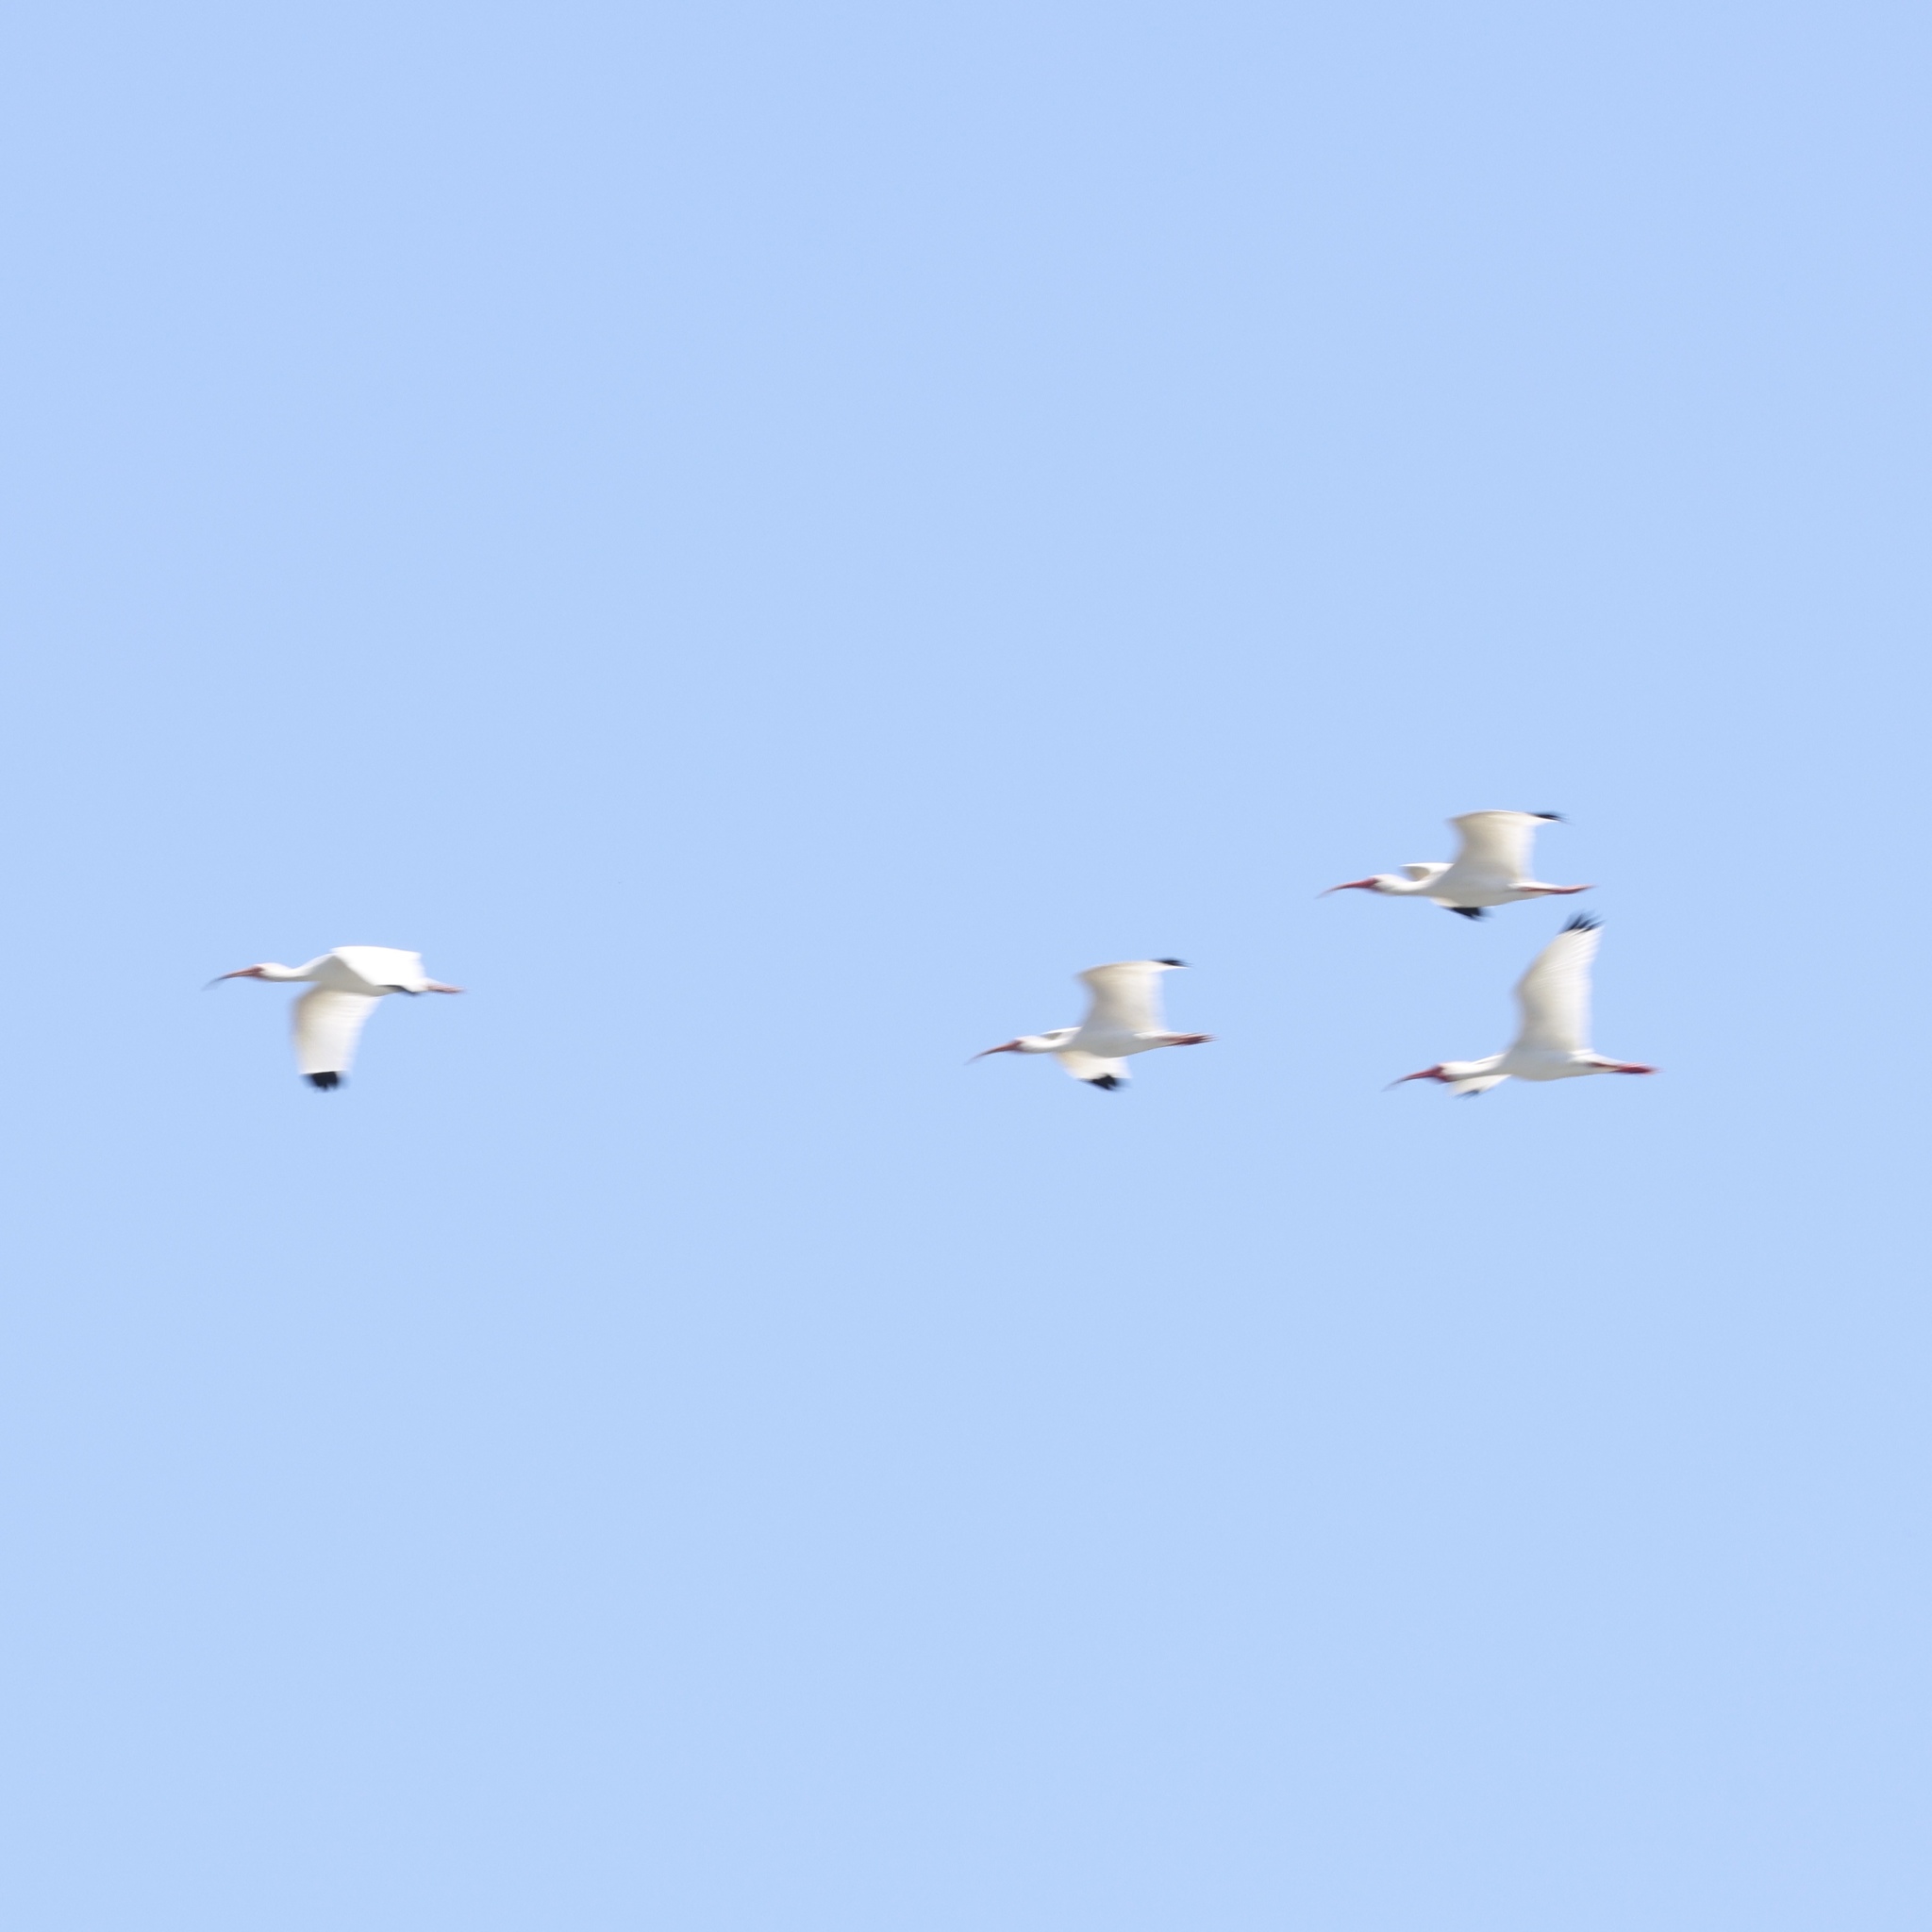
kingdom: Animalia
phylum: Chordata
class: Aves
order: Pelecaniformes
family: Threskiornithidae
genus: Eudocimus
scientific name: Eudocimus albus
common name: White ibis
